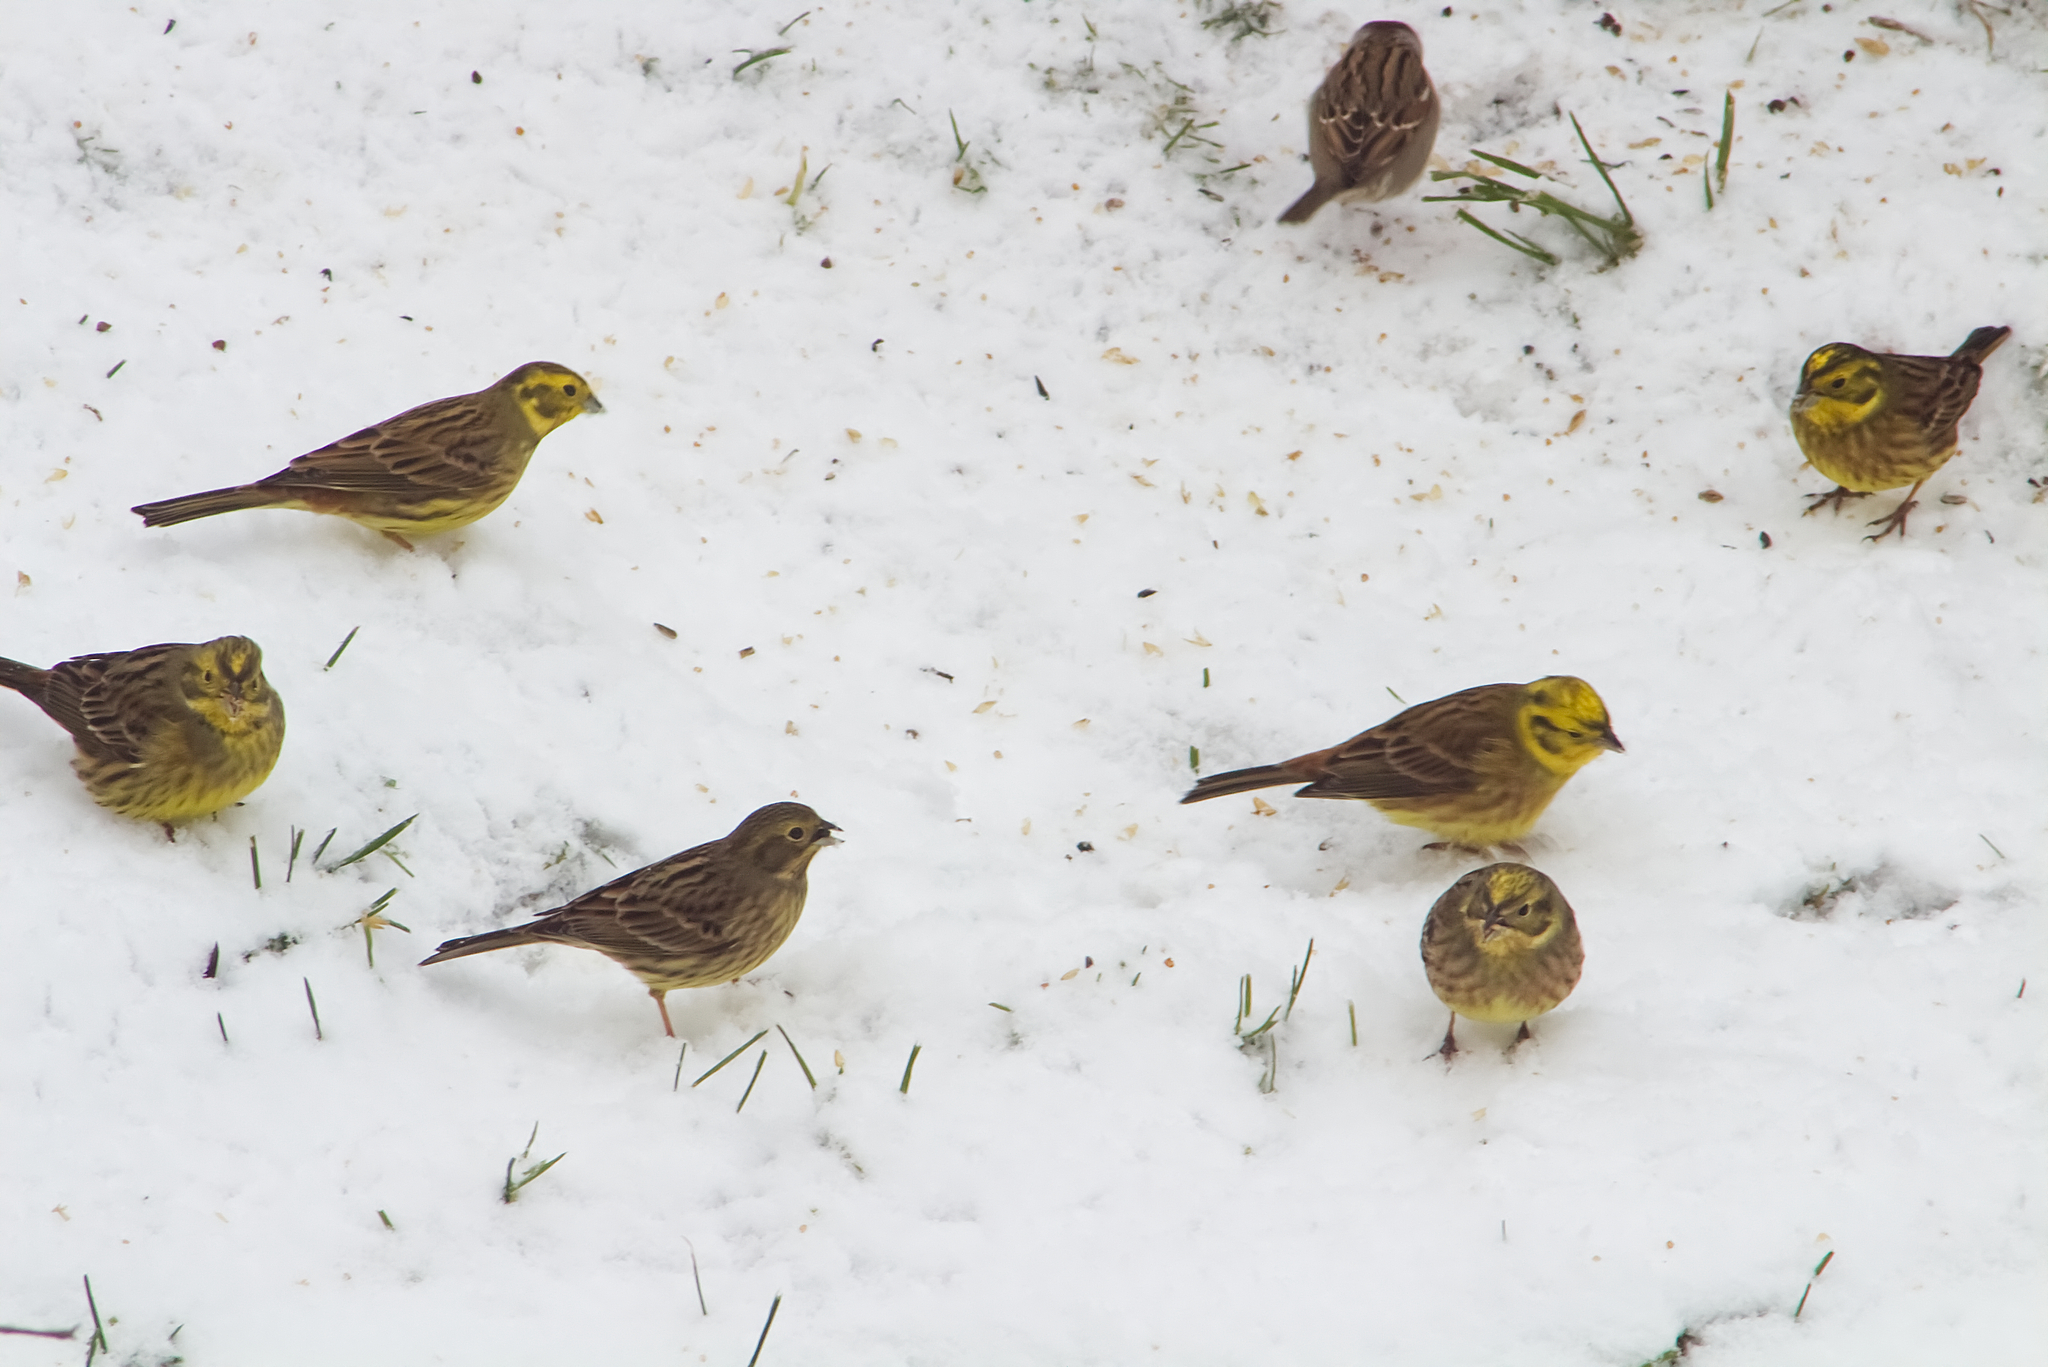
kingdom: Animalia
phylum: Chordata
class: Aves
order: Passeriformes
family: Emberizidae
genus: Emberiza
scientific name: Emberiza citrinella
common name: Yellowhammer
